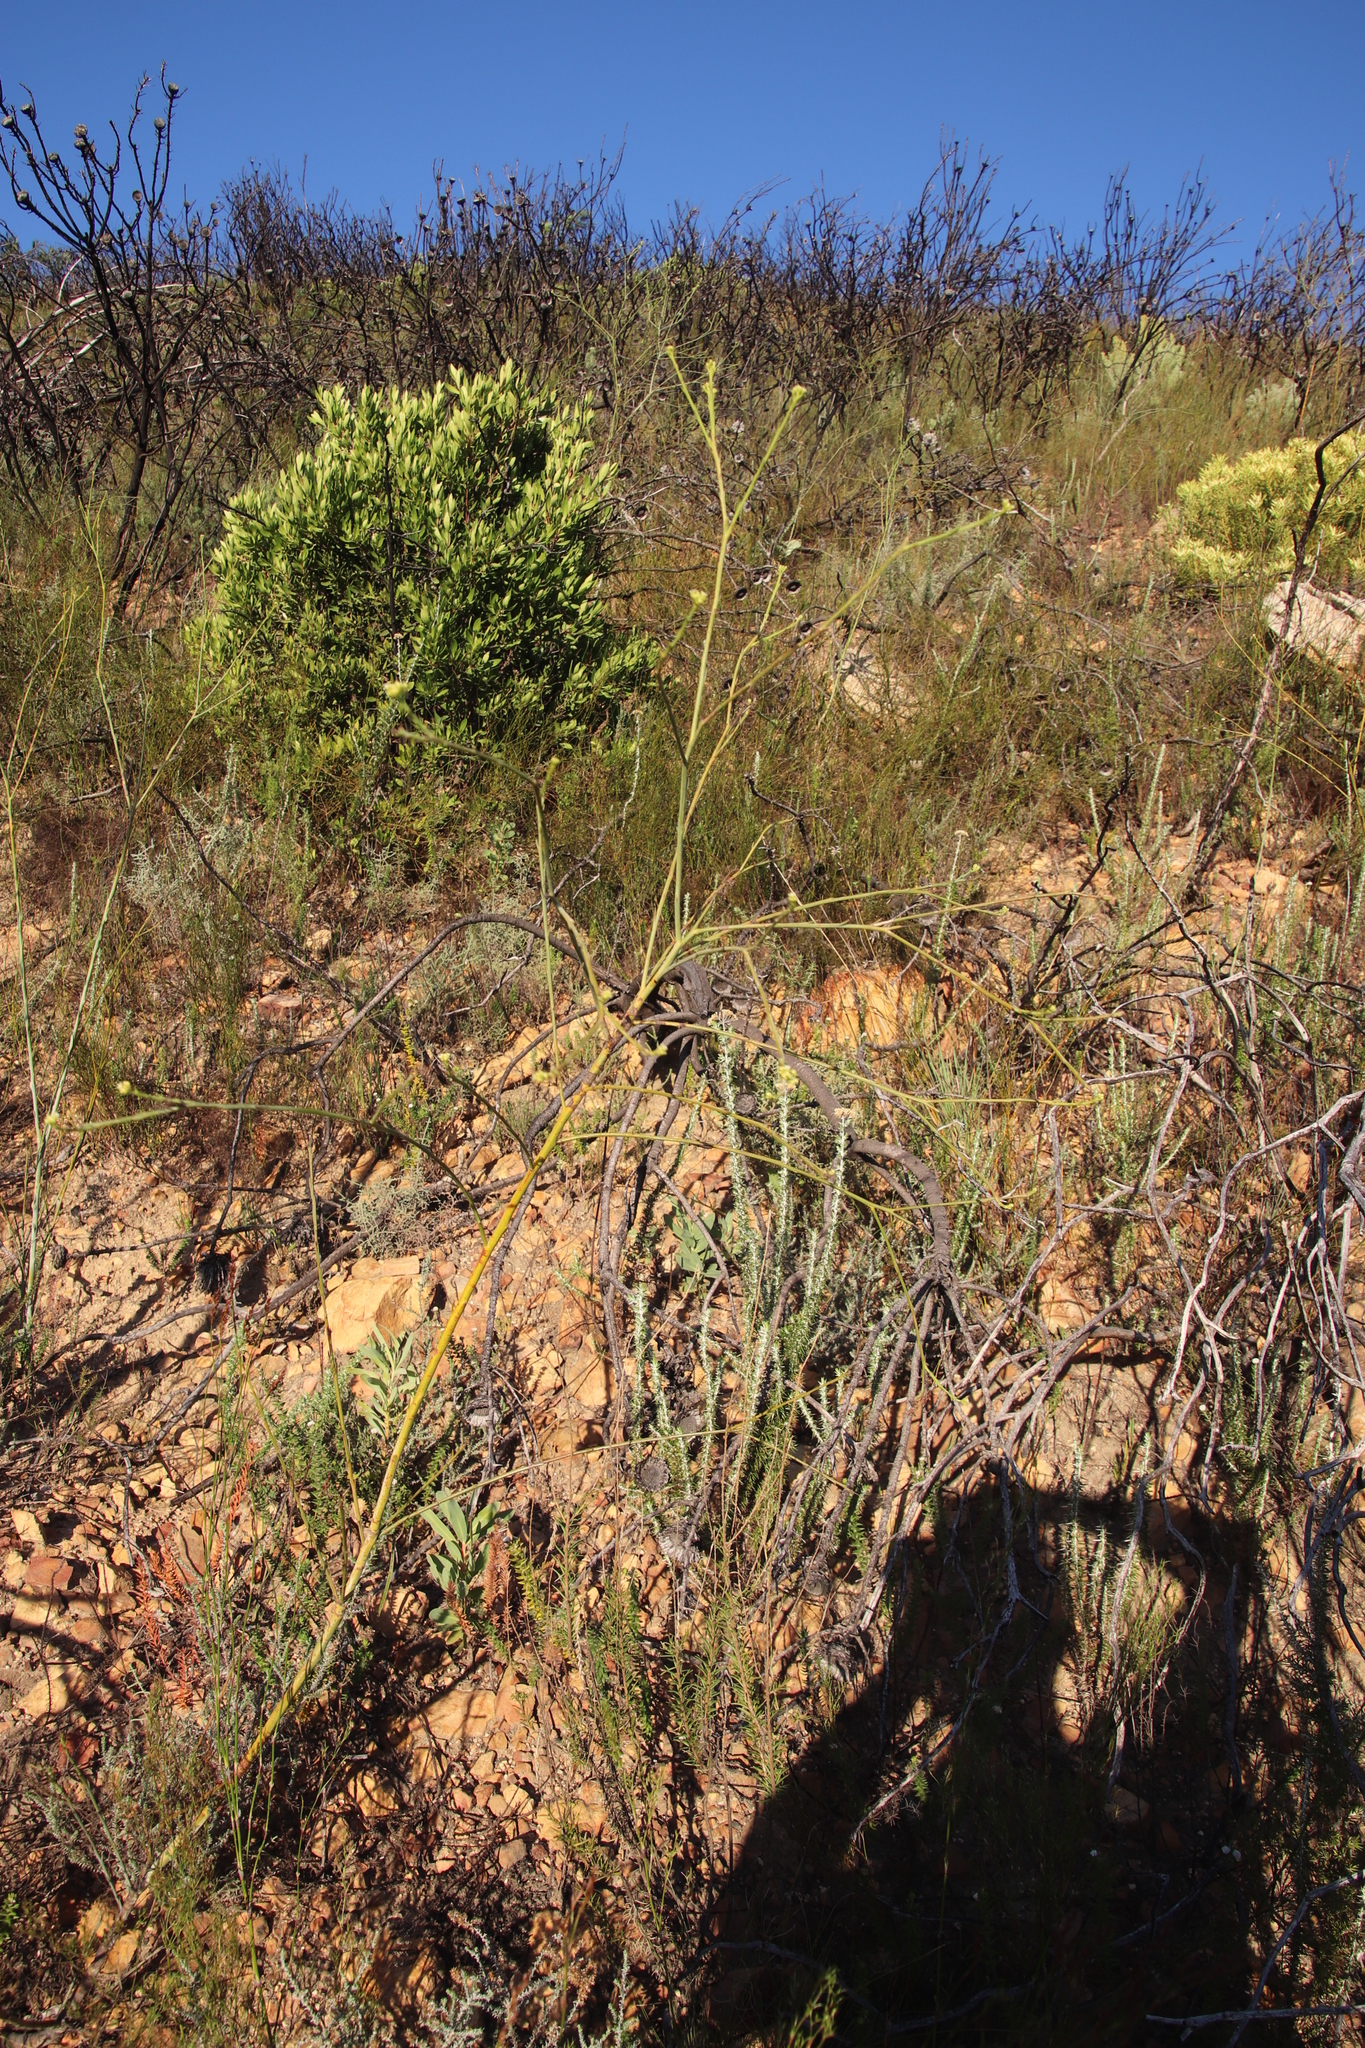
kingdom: Plantae
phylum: Tracheophyta
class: Magnoliopsida
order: Santalales
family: Thesiaceae
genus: Thesium
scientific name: Thesium strictum
